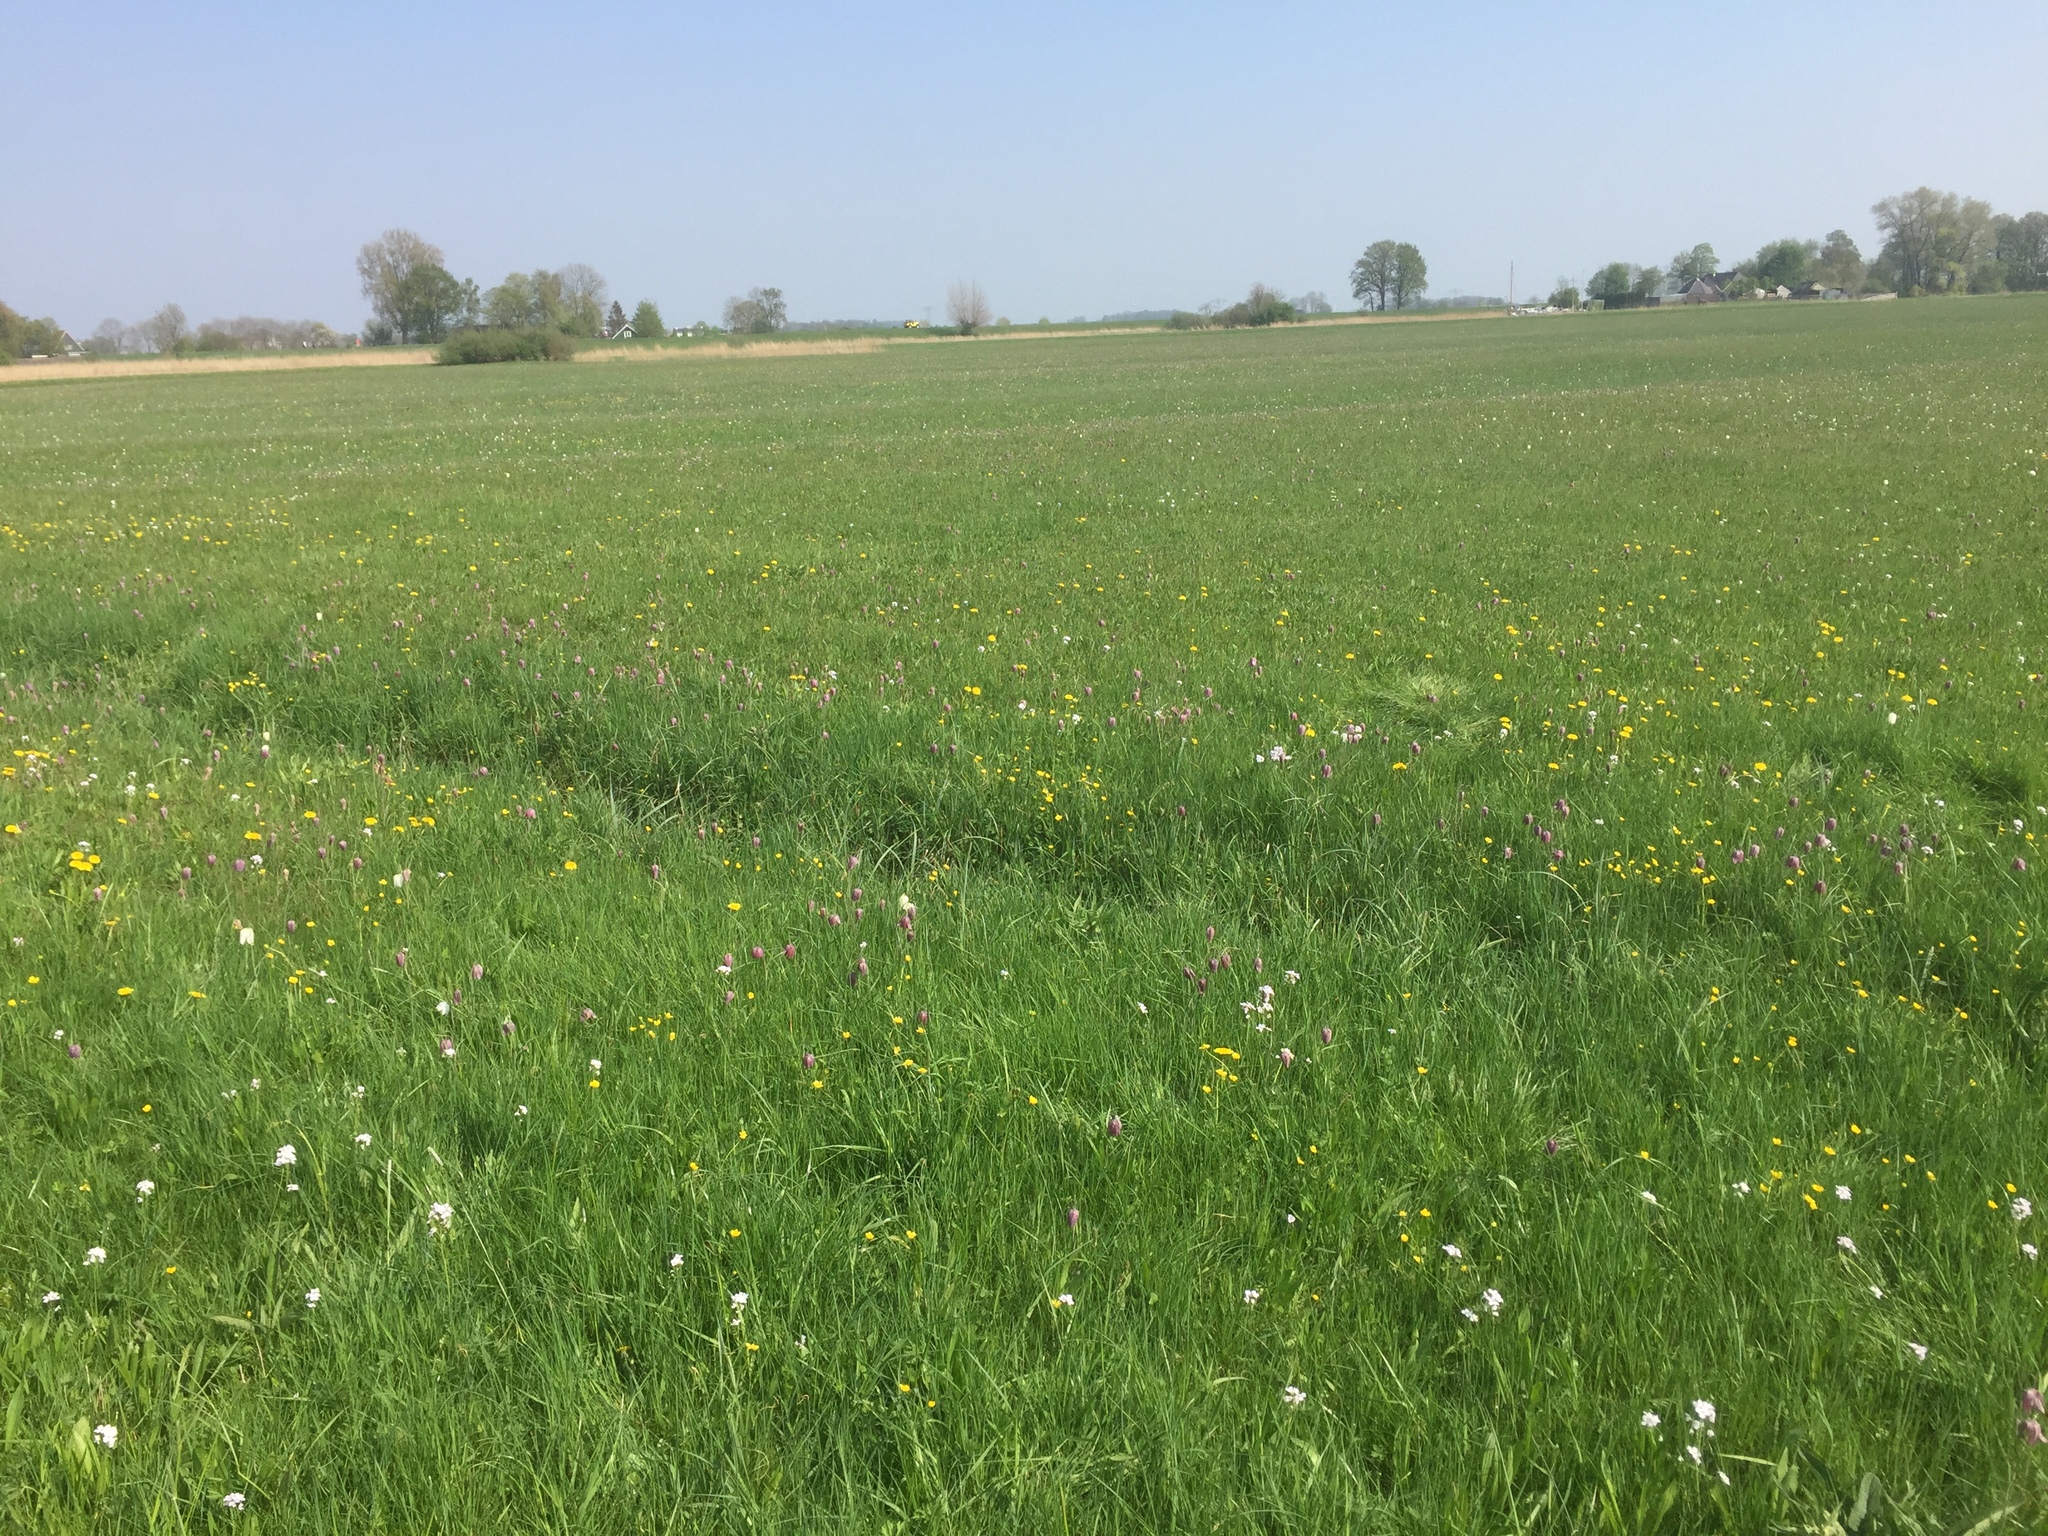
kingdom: Plantae
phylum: Tracheophyta
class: Liliopsida
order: Liliales
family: Liliaceae
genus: Fritillaria
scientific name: Fritillaria meleagris
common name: Fritillary
